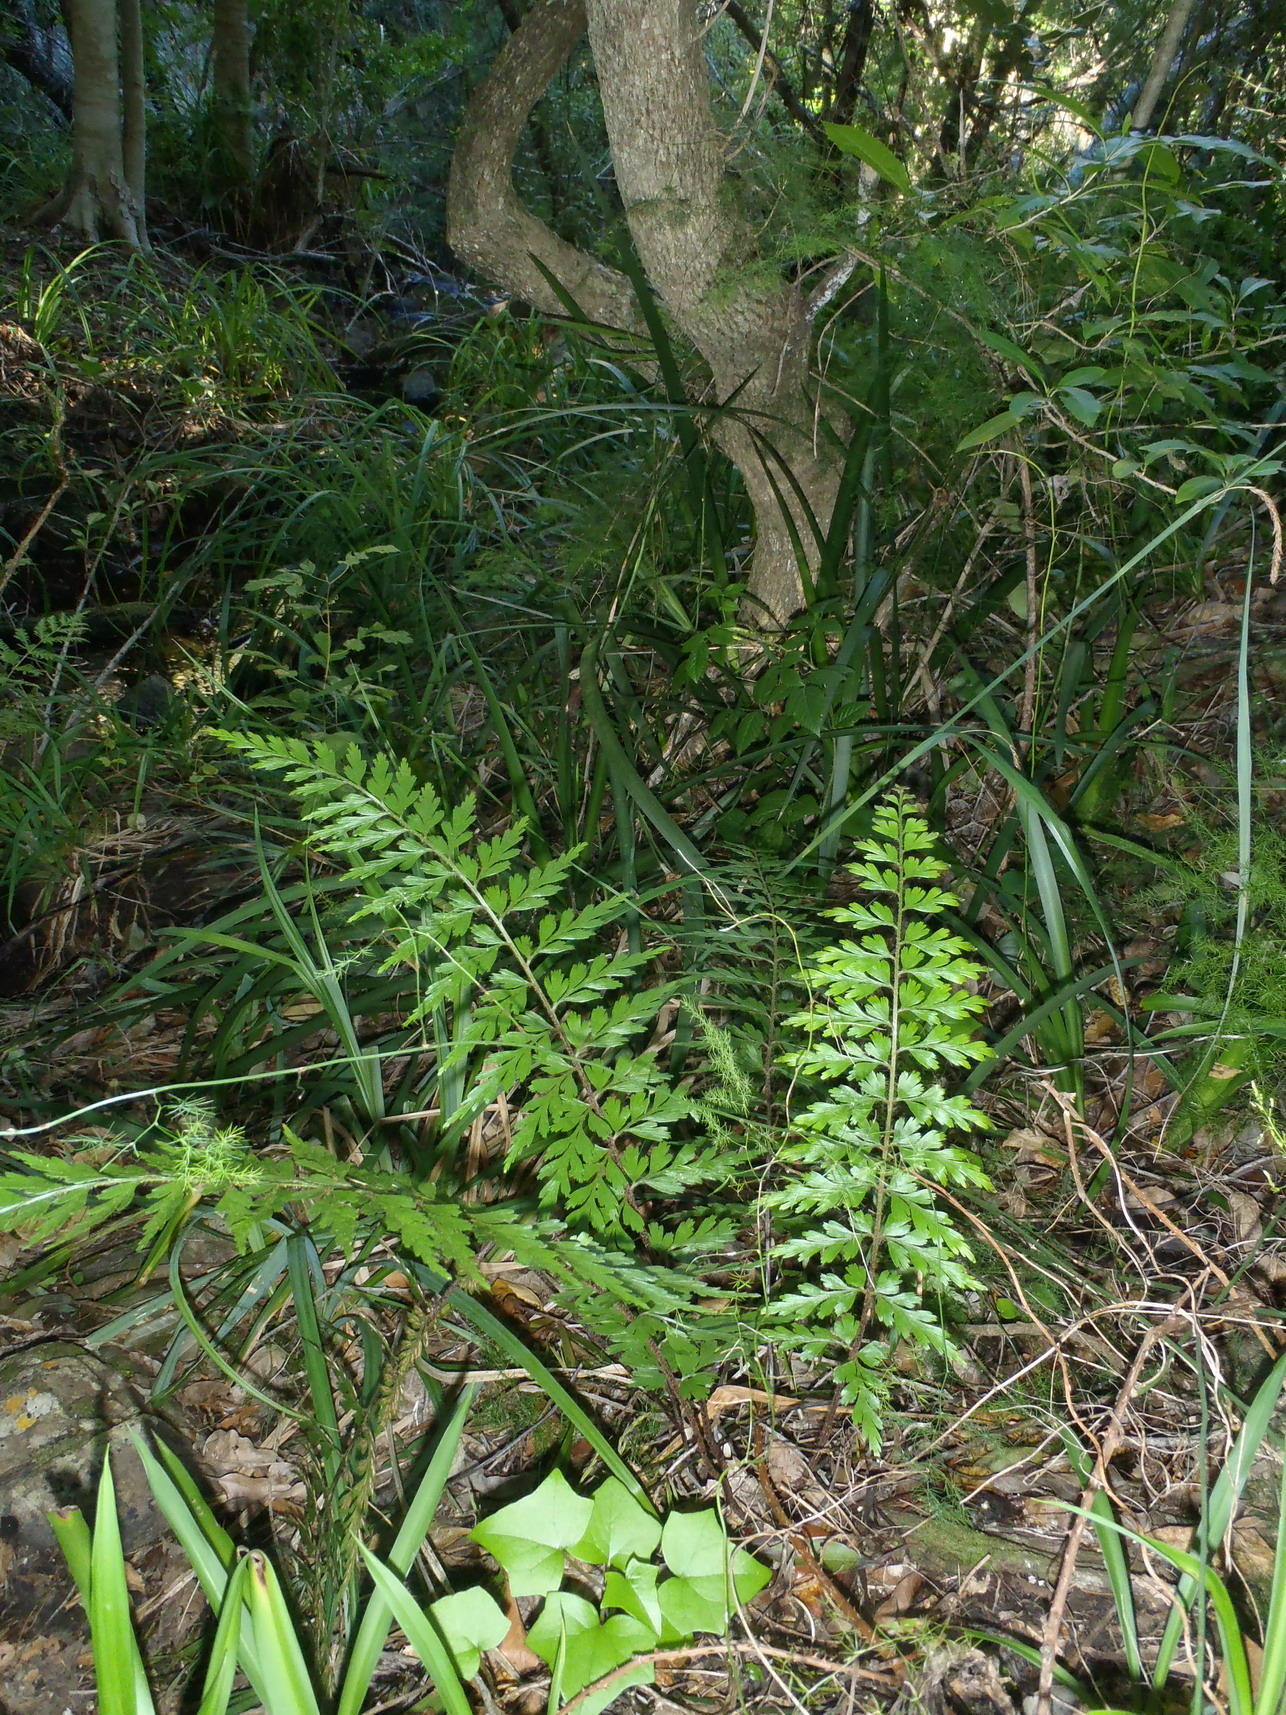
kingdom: Plantae
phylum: Tracheophyta
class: Polypodiopsida
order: Polypodiales
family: Aspleniaceae
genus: Asplenium
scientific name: Asplenium aethiopicum
